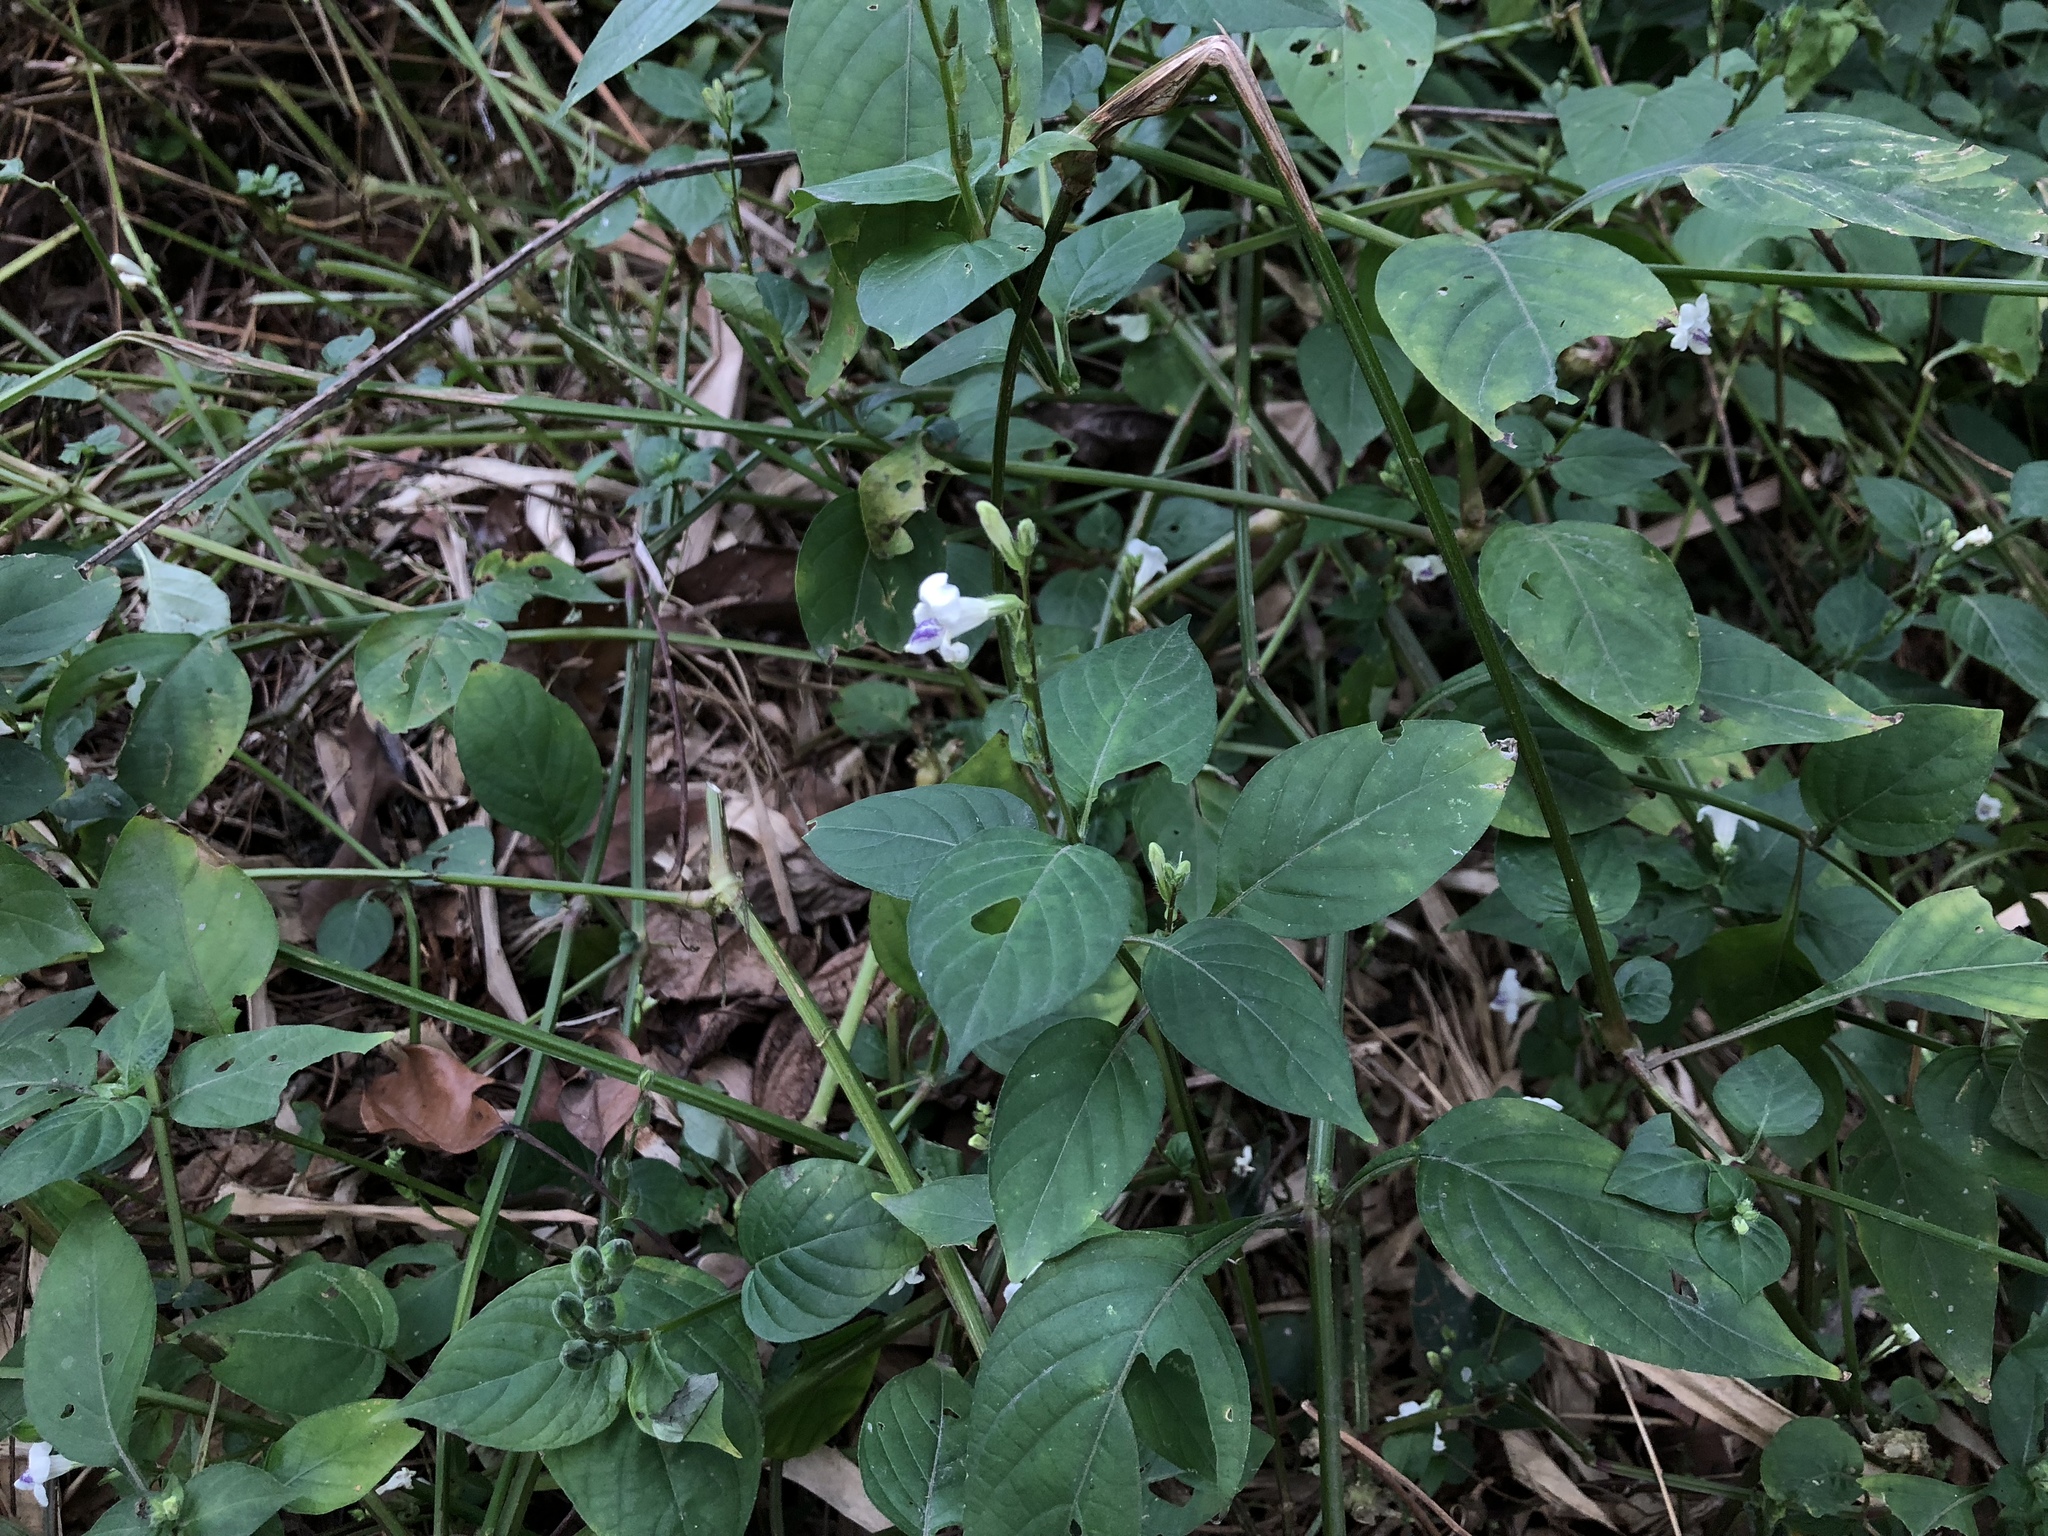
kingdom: Plantae
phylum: Tracheophyta
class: Magnoliopsida
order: Lamiales
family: Acanthaceae
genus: Asystasia
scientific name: Asystasia intrusa
